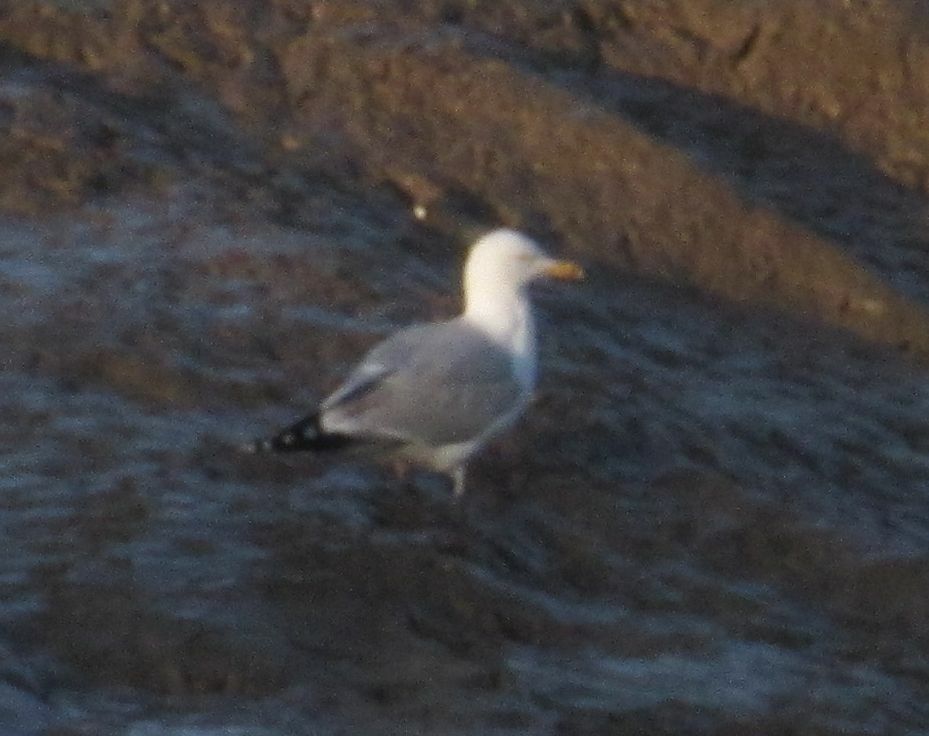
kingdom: Animalia
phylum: Chordata
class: Aves
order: Charadriiformes
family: Laridae
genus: Larus
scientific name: Larus argentatus
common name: Herring gull
